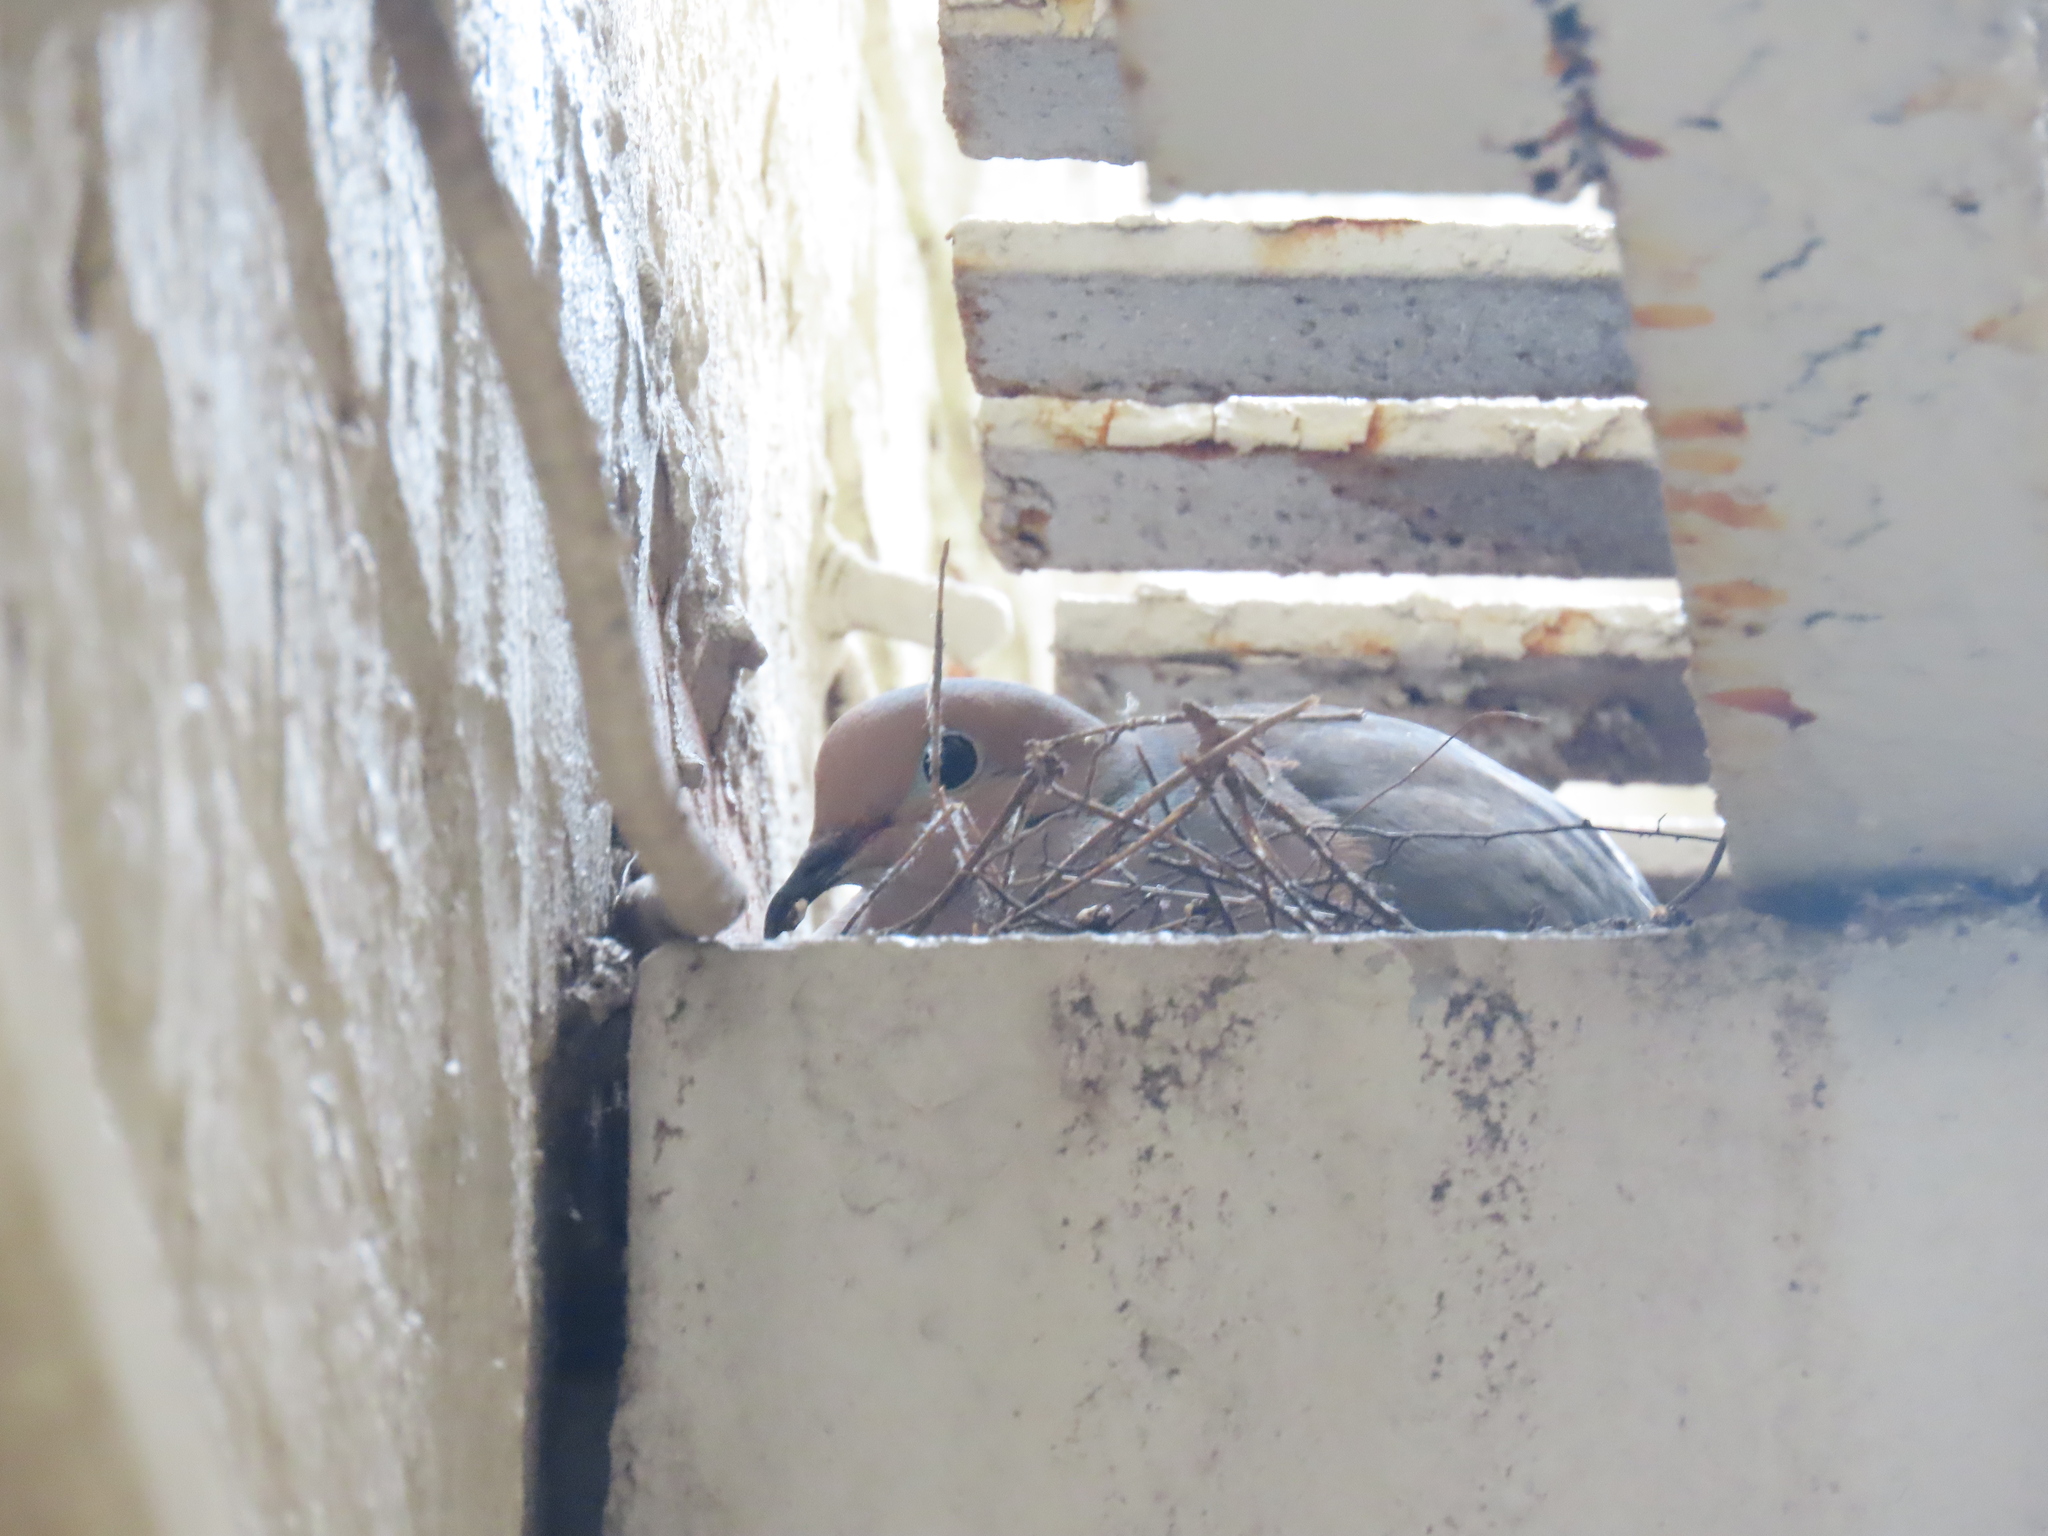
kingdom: Animalia
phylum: Chordata
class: Aves
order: Columbiformes
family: Columbidae
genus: Zenaida
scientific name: Zenaida macroura
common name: Mourning dove
